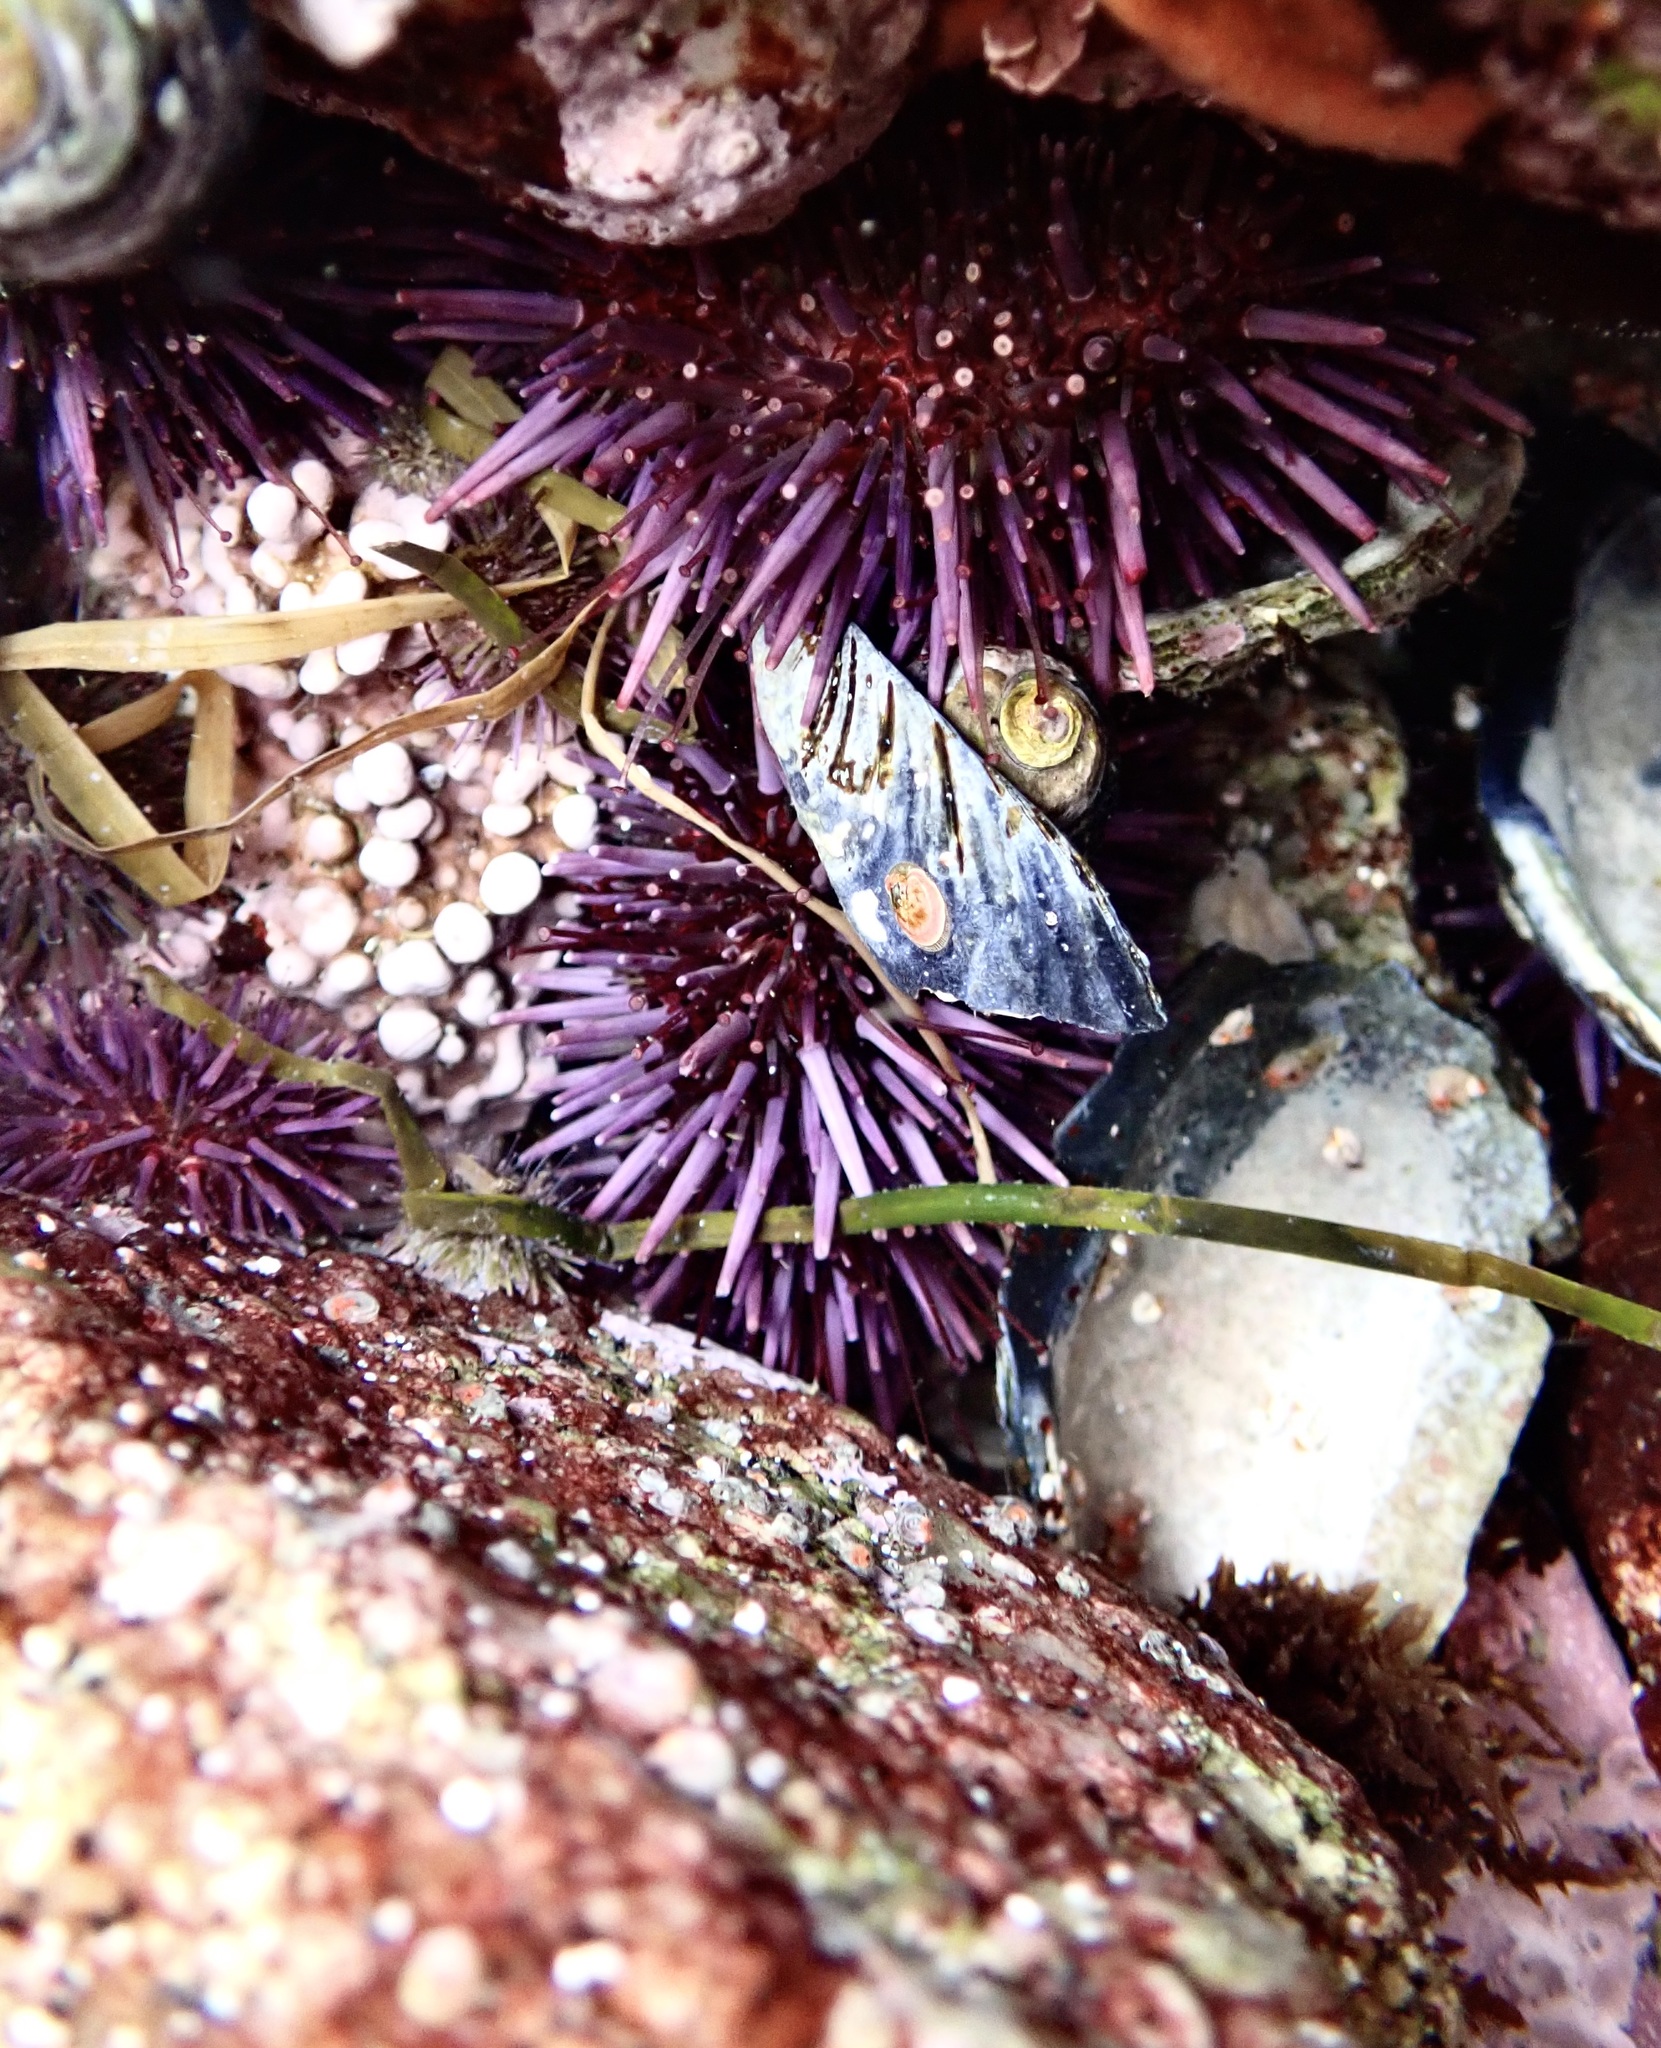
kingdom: Animalia
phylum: Echinodermata
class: Echinoidea
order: Camarodonta
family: Strongylocentrotidae
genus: Strongylocentrotus
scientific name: Strongylocentrotus purpuratus
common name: Purple sea urchin
